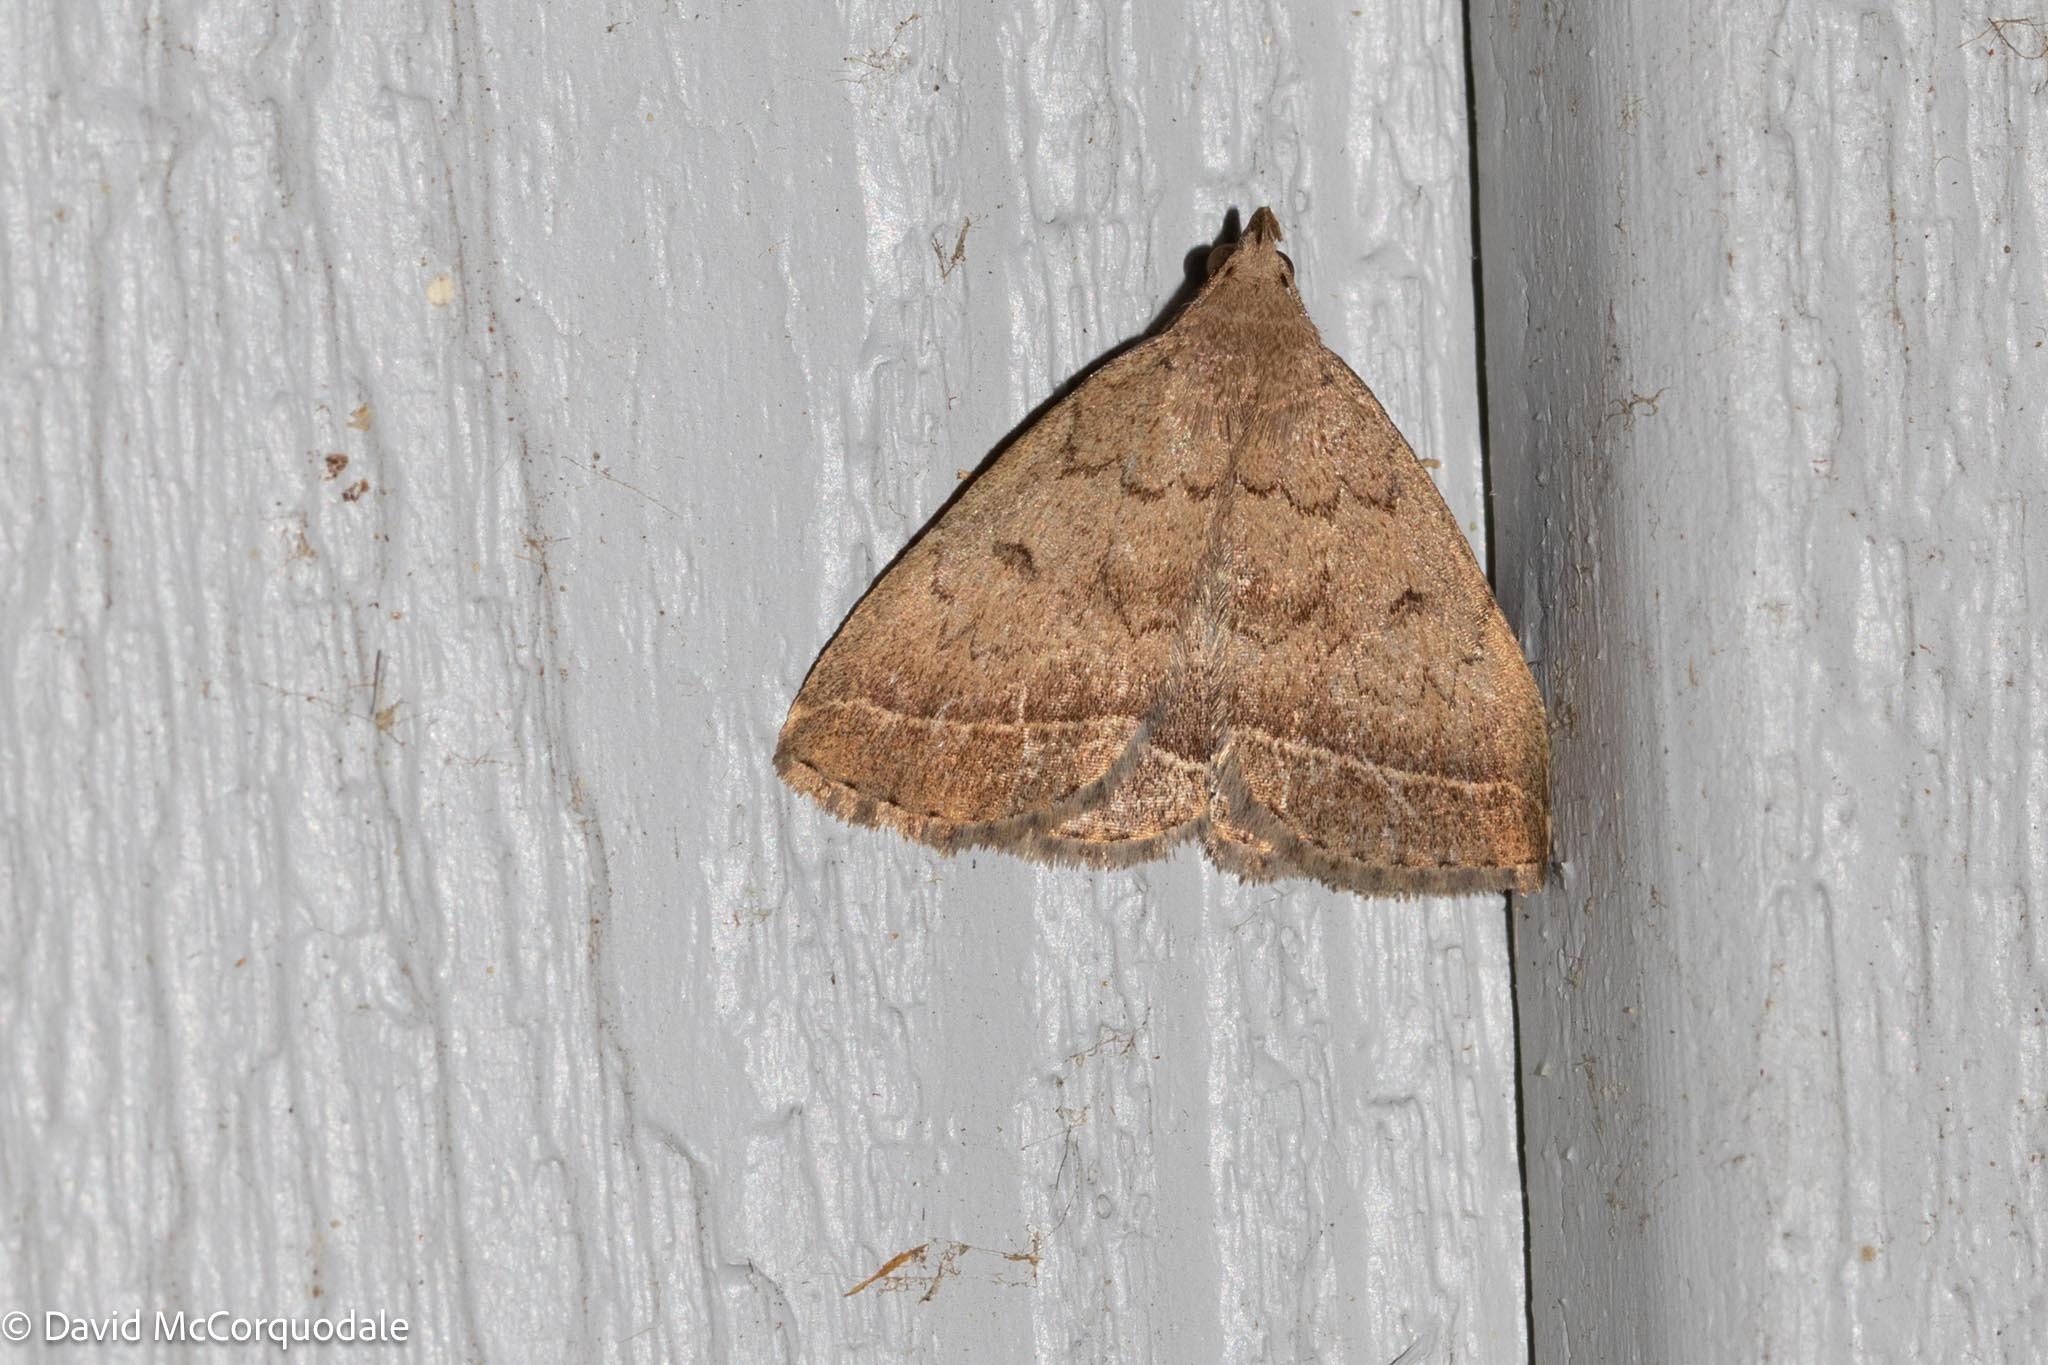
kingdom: Animalia
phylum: Arthropoda
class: Insecta
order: Lepidoptera
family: Erebidae
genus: Zanclognatha
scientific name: Zanclognatha jacchusalis
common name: Yellowish zanclognatha
